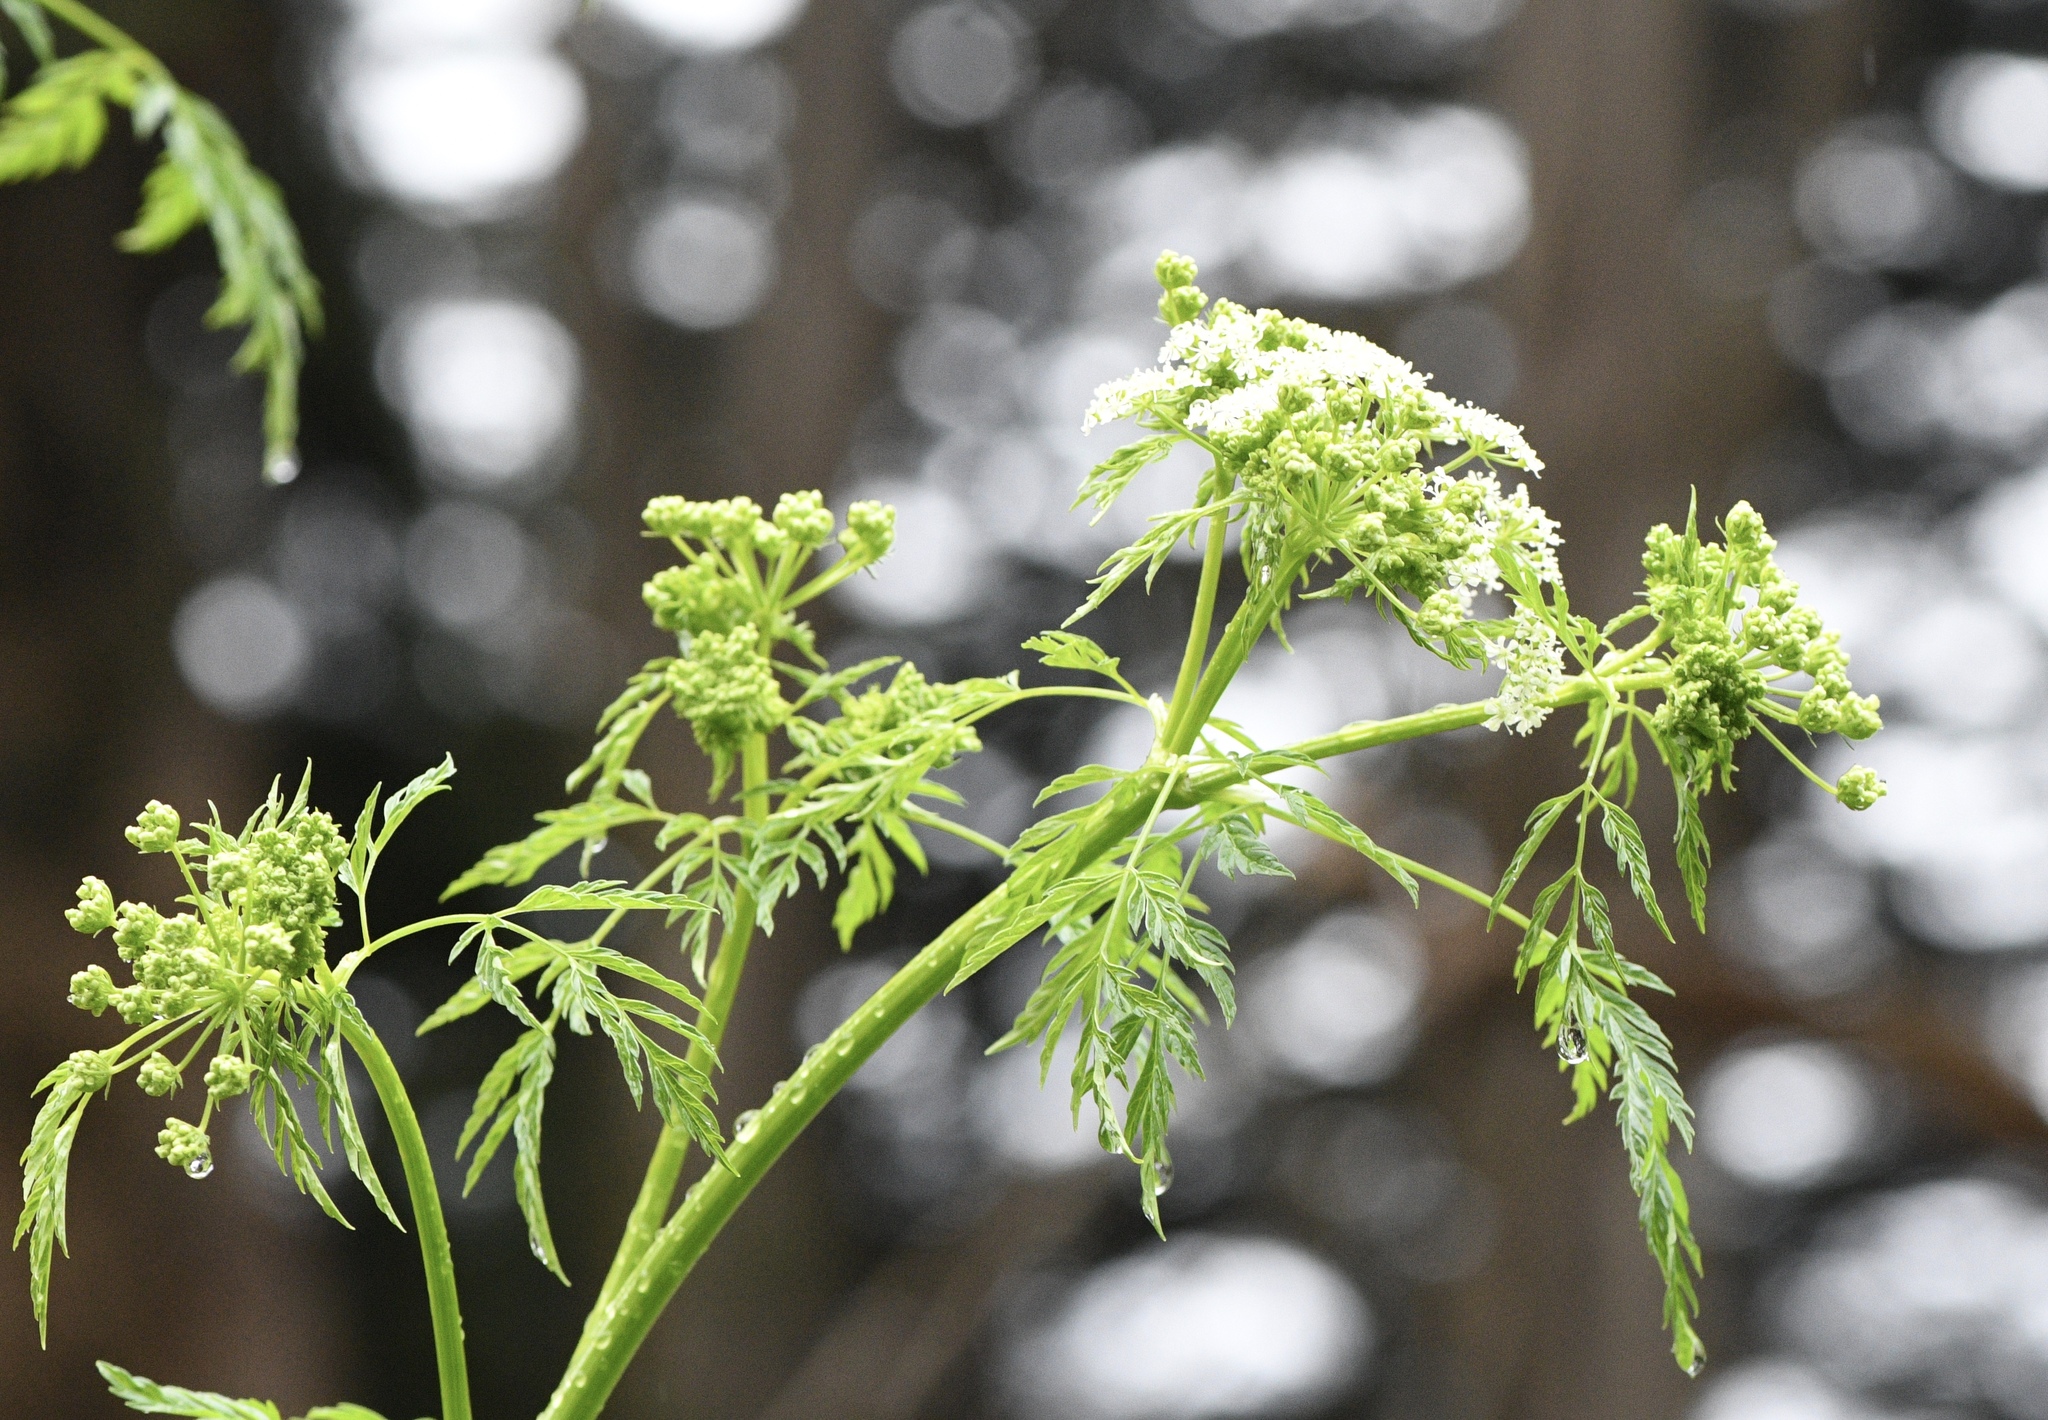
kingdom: Plantae
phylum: Tracheophyta
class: Magnoliopsida
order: Apiales
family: Apiaceae
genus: Conium
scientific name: Conium maculatum
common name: Hemlock
